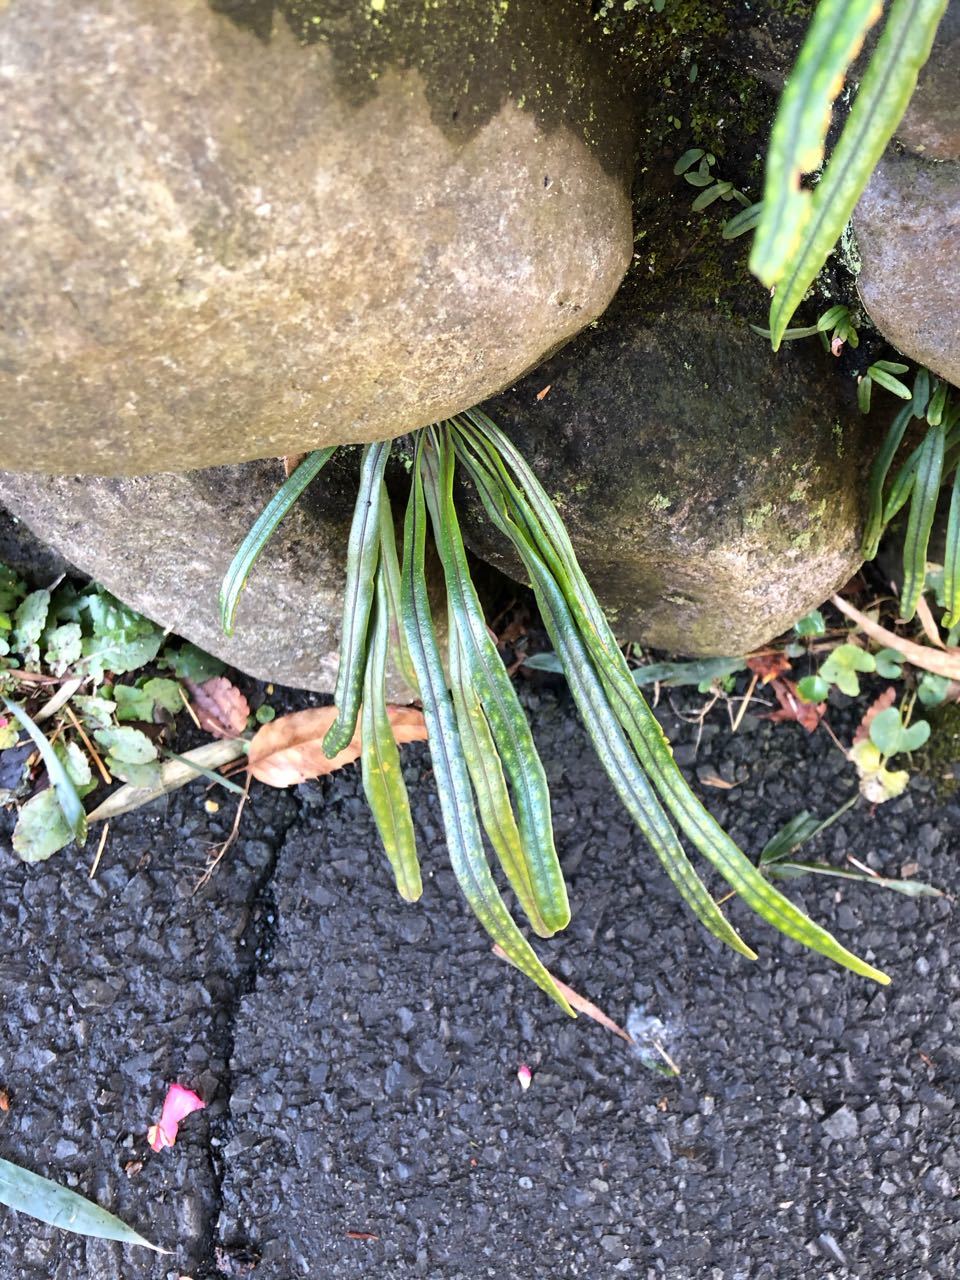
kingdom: Plantae
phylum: Tracheophyta
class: Polypodiopsida
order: Polypodiales
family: Polypodiaceae
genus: Lepisorus
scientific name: Lepisorus thunbergianus
